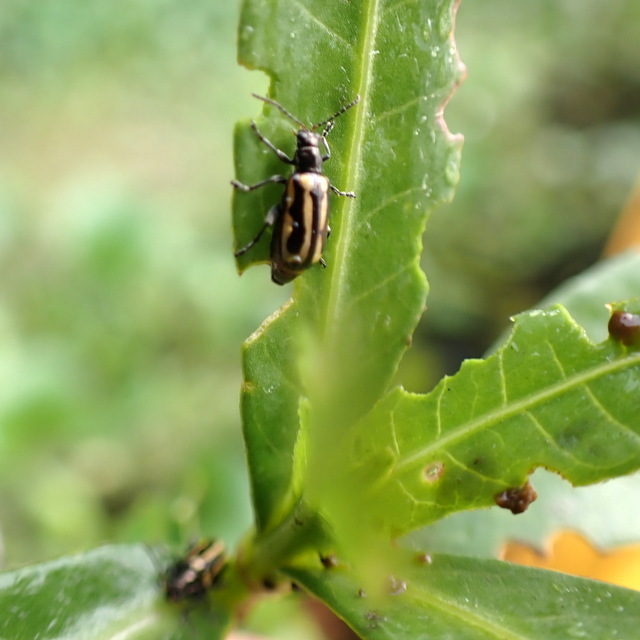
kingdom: Animalia
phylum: Arthropoda
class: Insecta
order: Coleoptera
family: Chrysomelidae
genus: Agasicles
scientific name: Agasicles hygrophila
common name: Alligatorweed flea beetle
